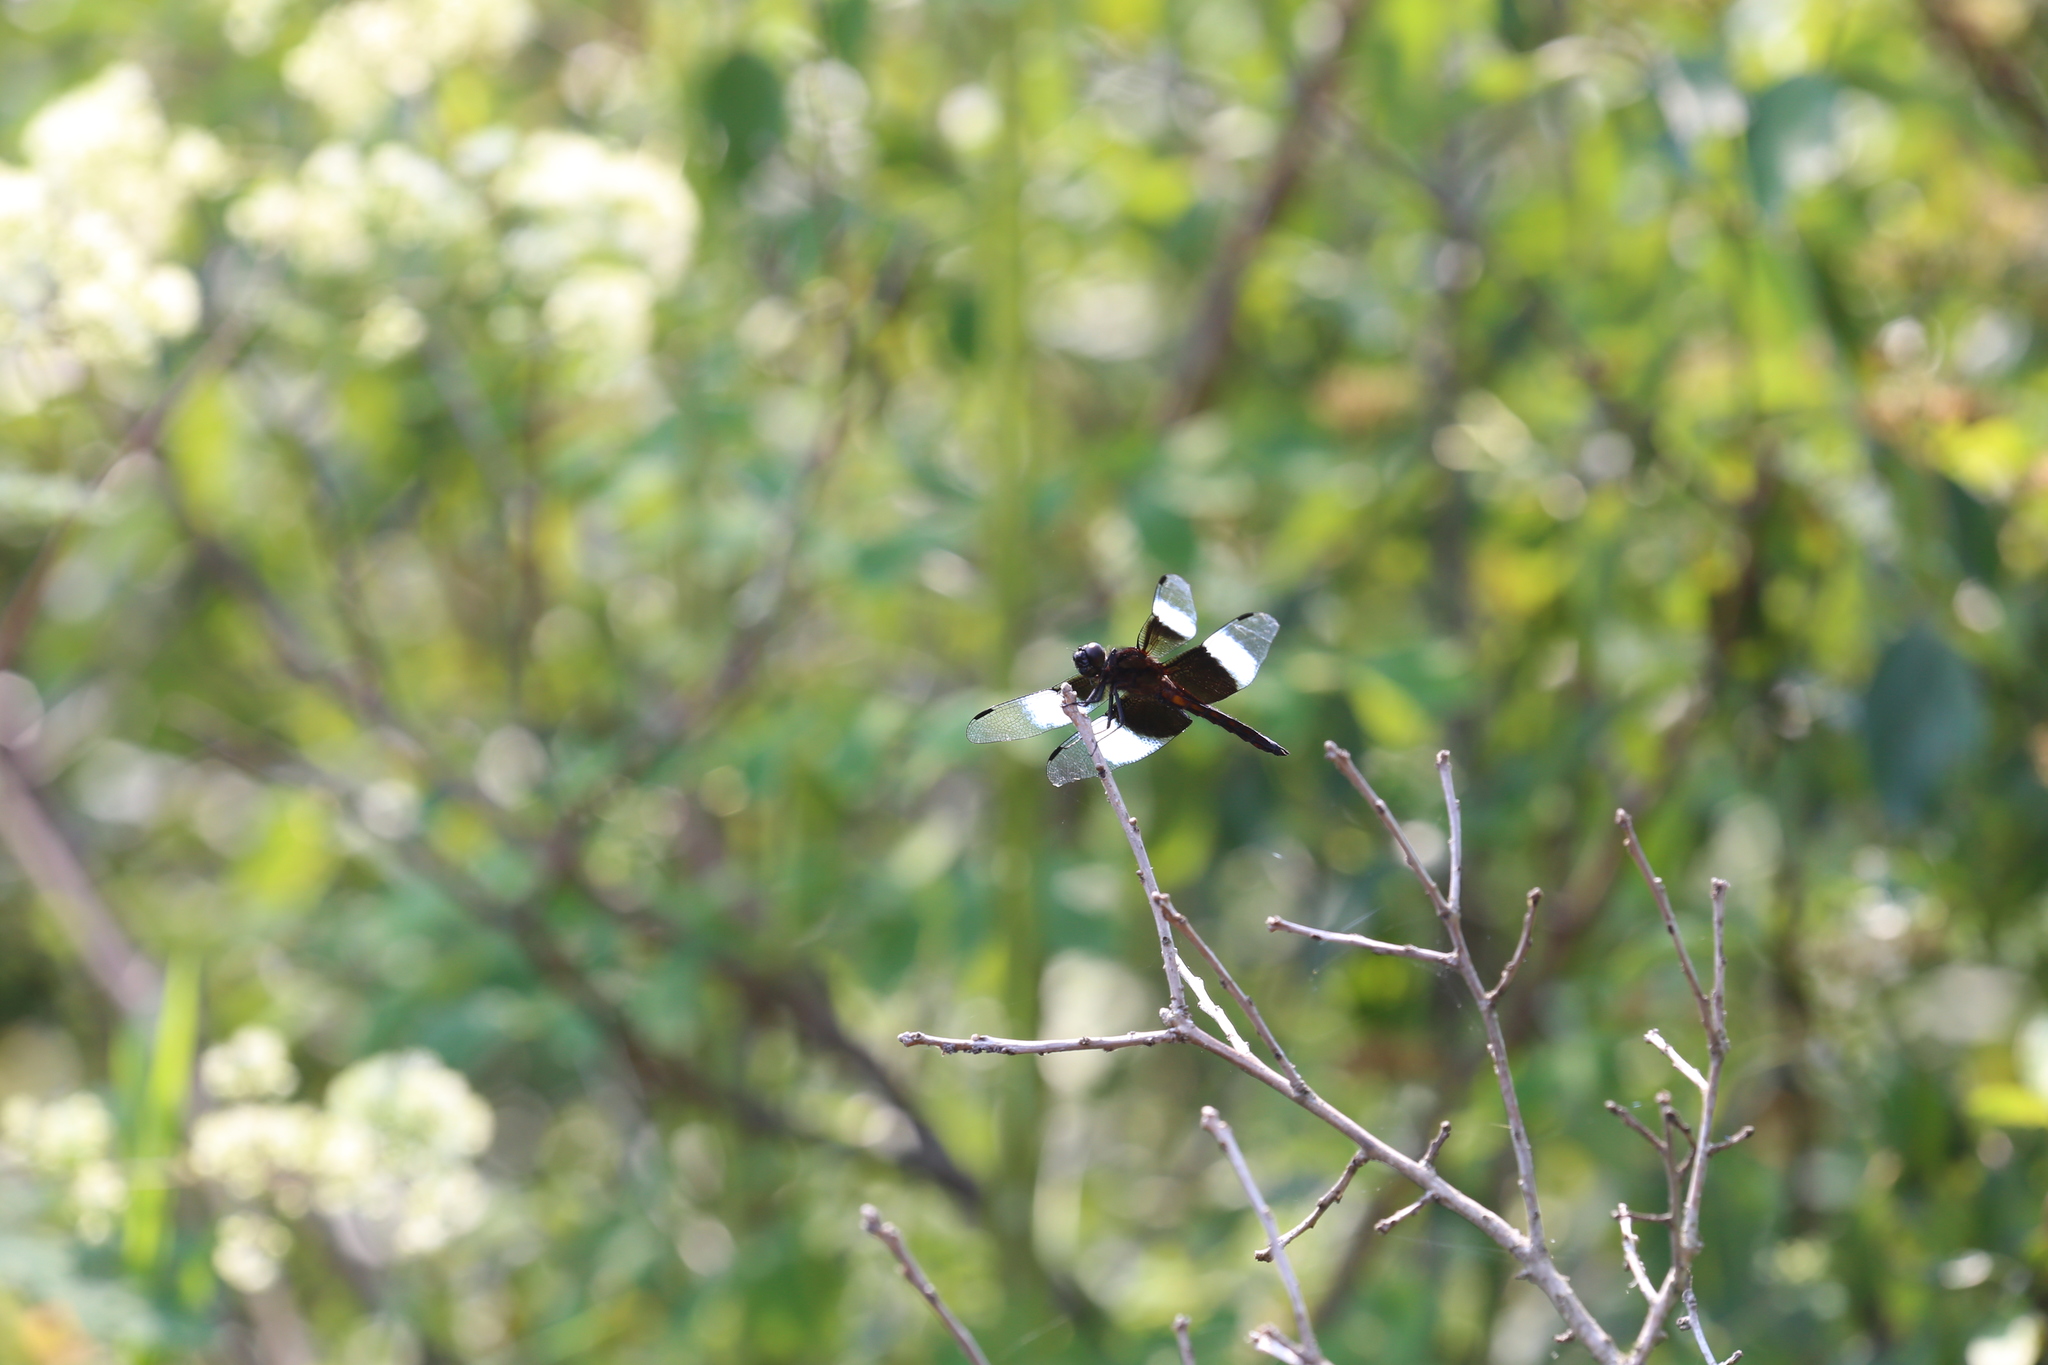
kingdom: Animalia
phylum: Arthropoda
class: Insecta
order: Odonata
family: Libellulidae
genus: Libellula
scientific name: Libellula luctuosa
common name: Widow skimmer
